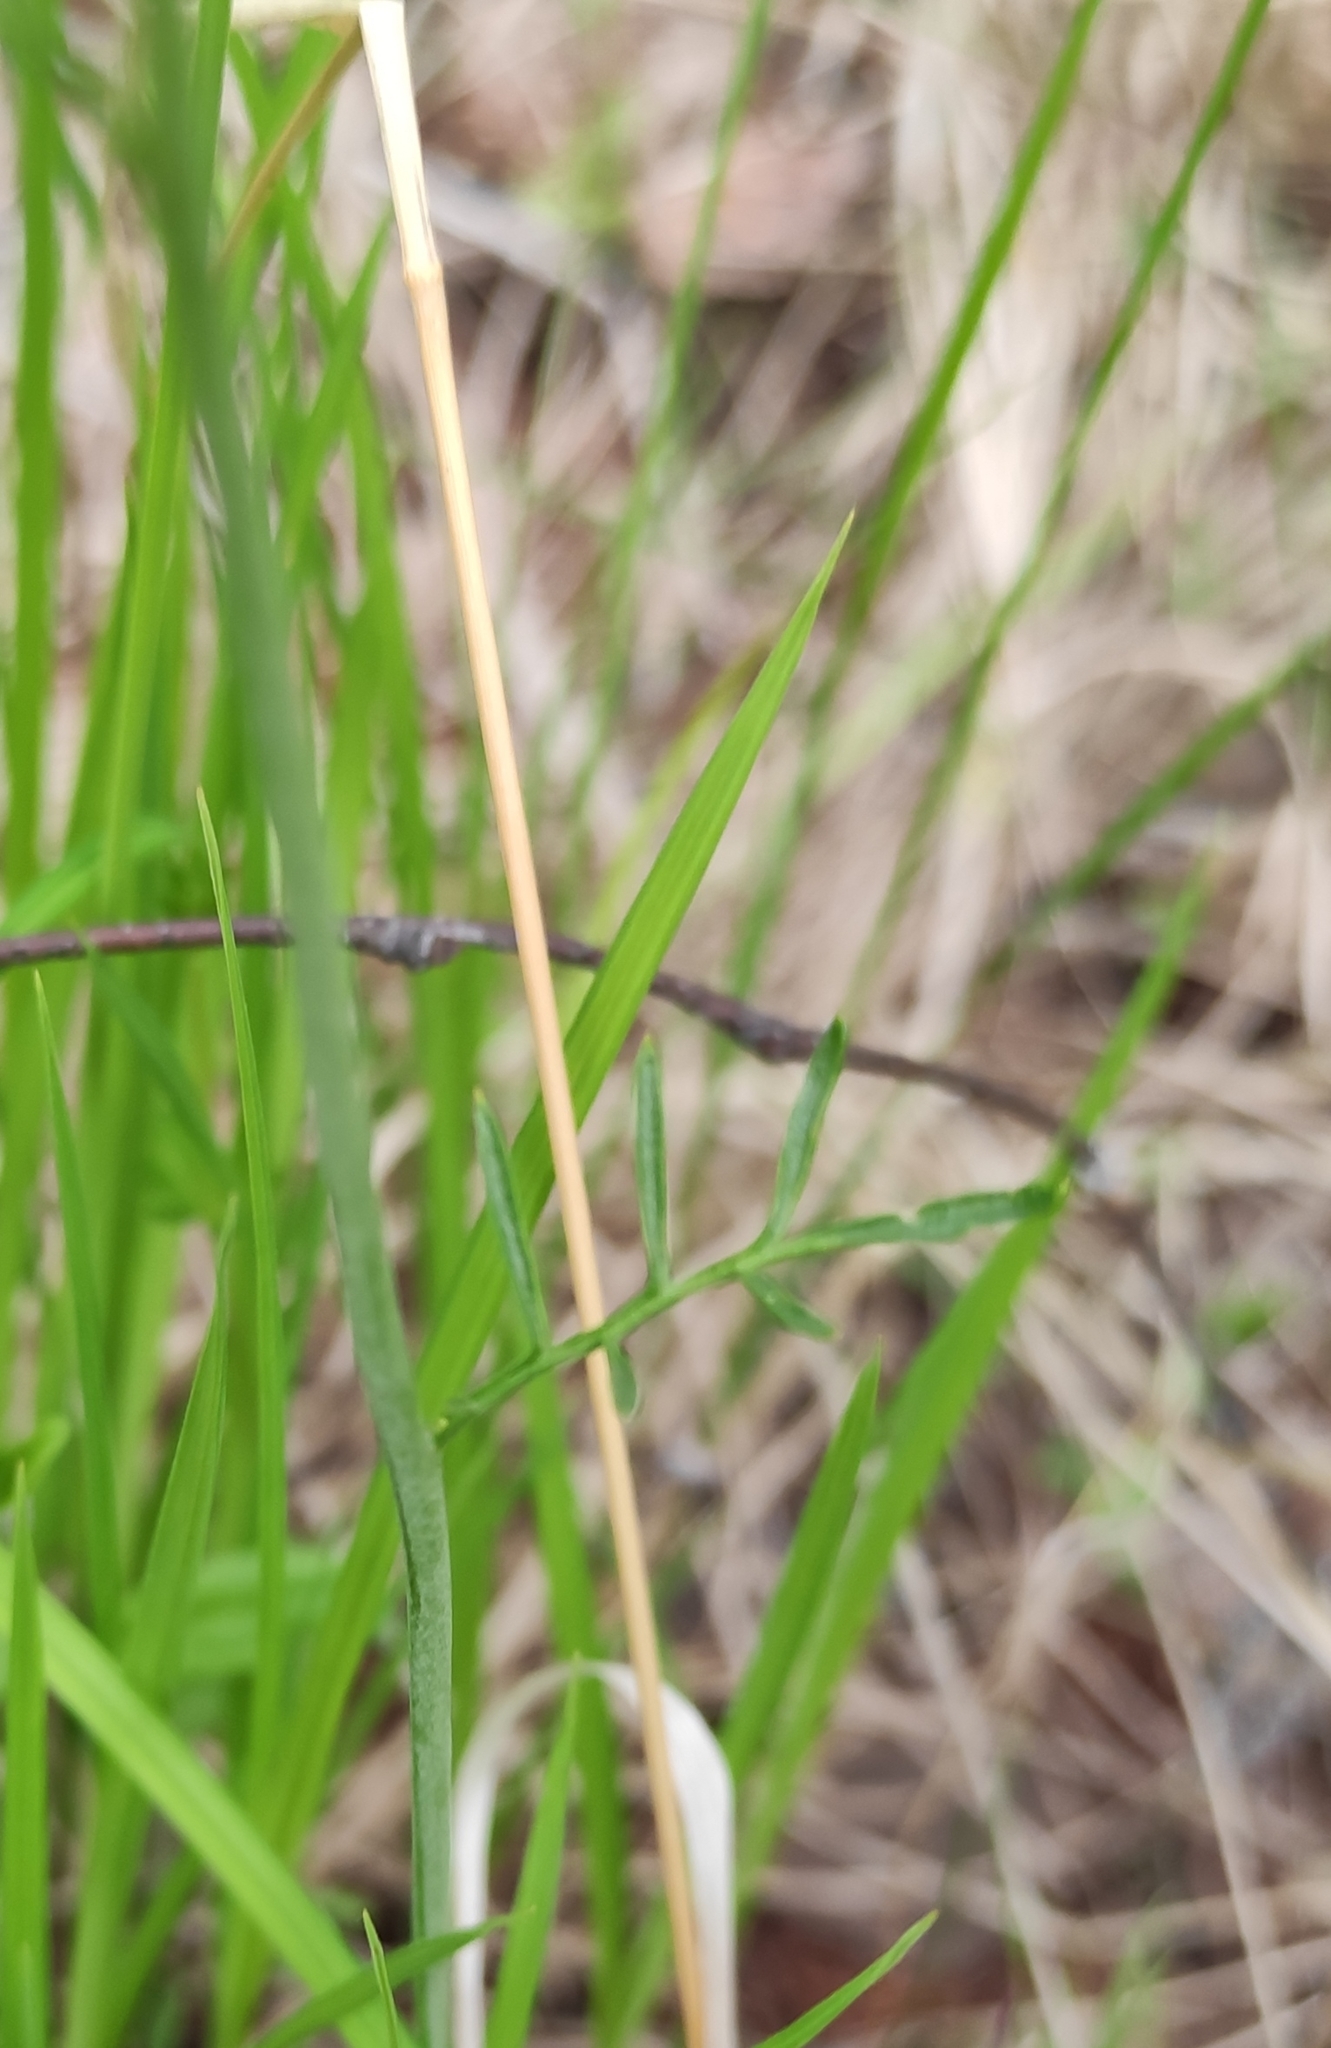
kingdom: Plantae
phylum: Tracheophyta
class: Magnoliopsida
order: Brassicales
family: Brassicaceae
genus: Cardamine
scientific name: Cardamine pratensis
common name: Cuckoo flower
